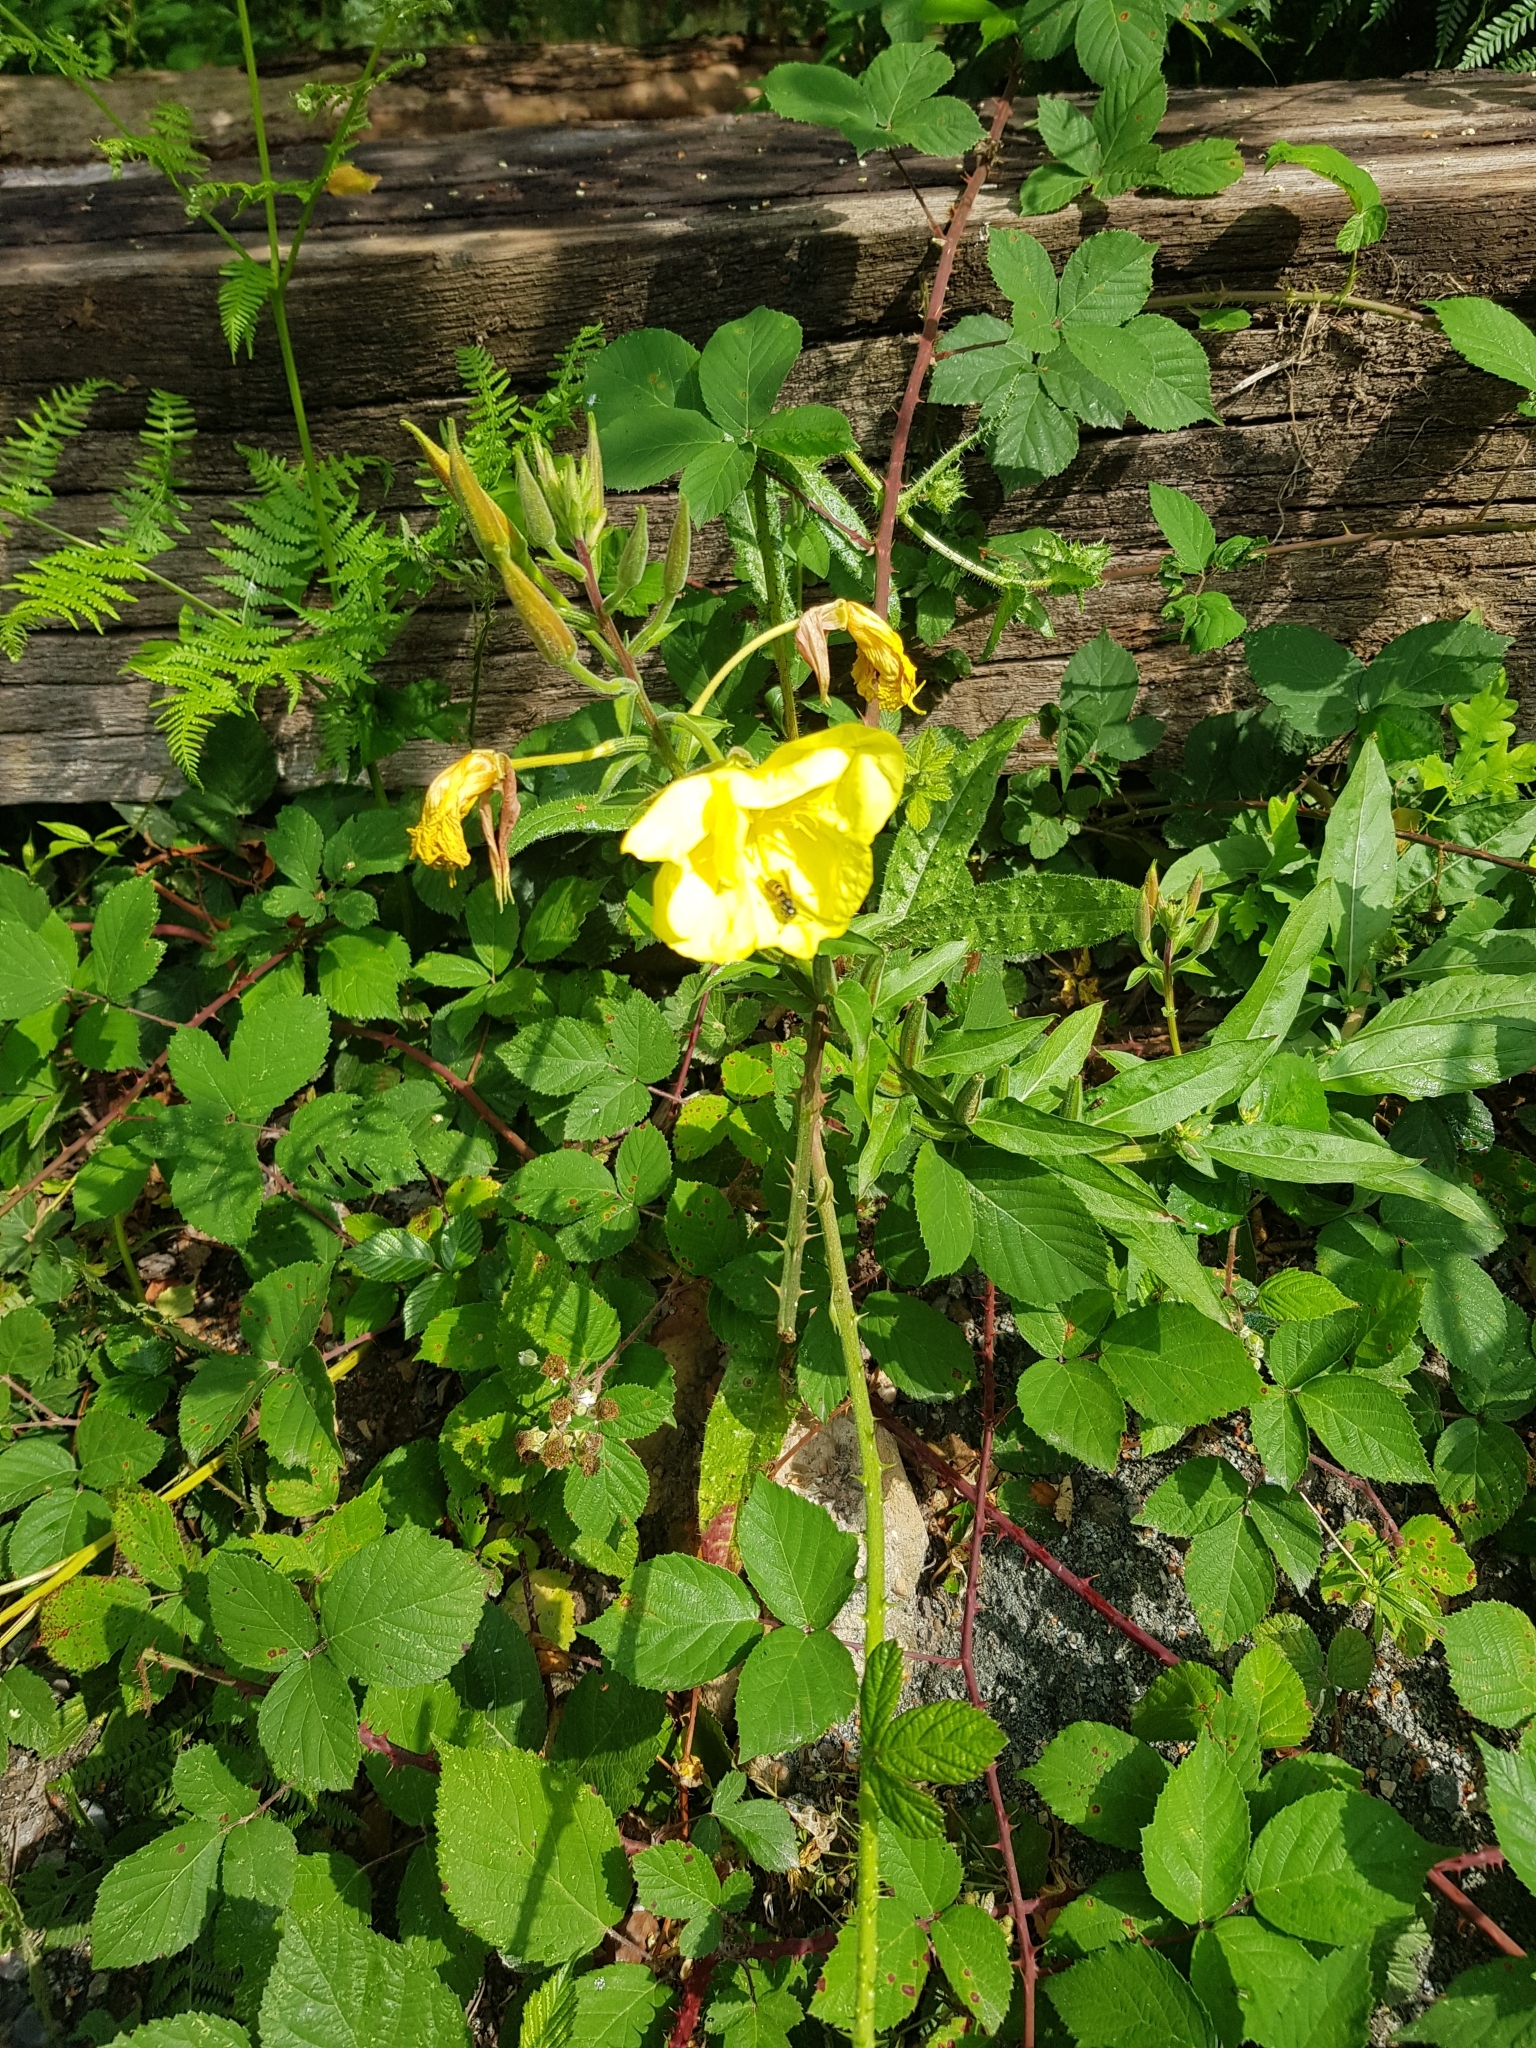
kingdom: Plantae
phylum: Tracheophyta
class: Magnoliopsida
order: Myrtales
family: Onagraceae
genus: Oenothera
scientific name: Oenothera biennis
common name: Common evening-primrose
